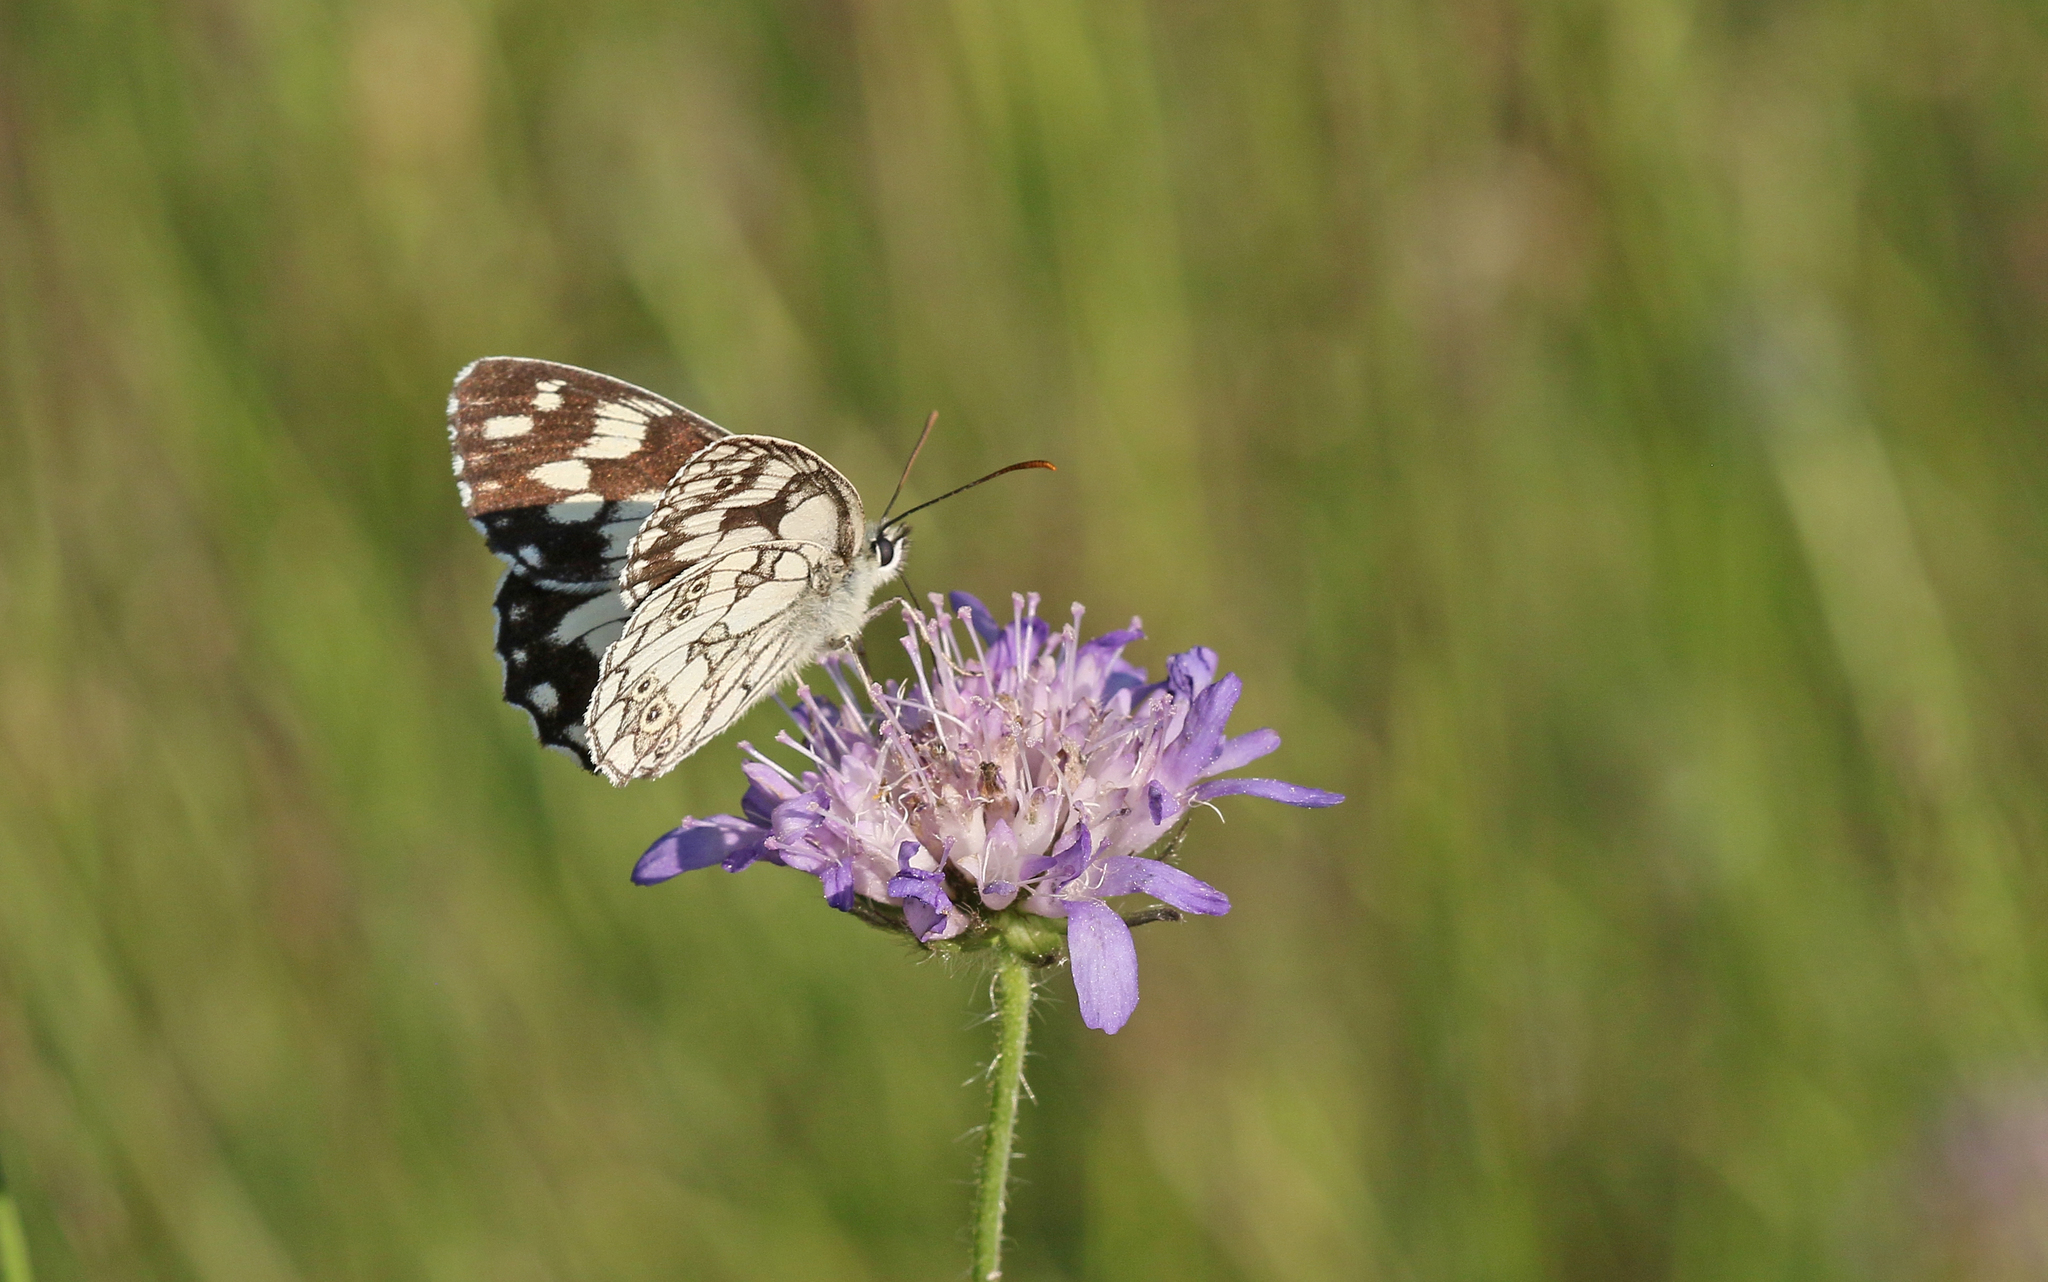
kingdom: Animalia
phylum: Arthropoda
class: Insecta
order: Lepidoptera
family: Nymphalidae
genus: Melanargia
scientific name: Melanargia galathea
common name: Marbled white
